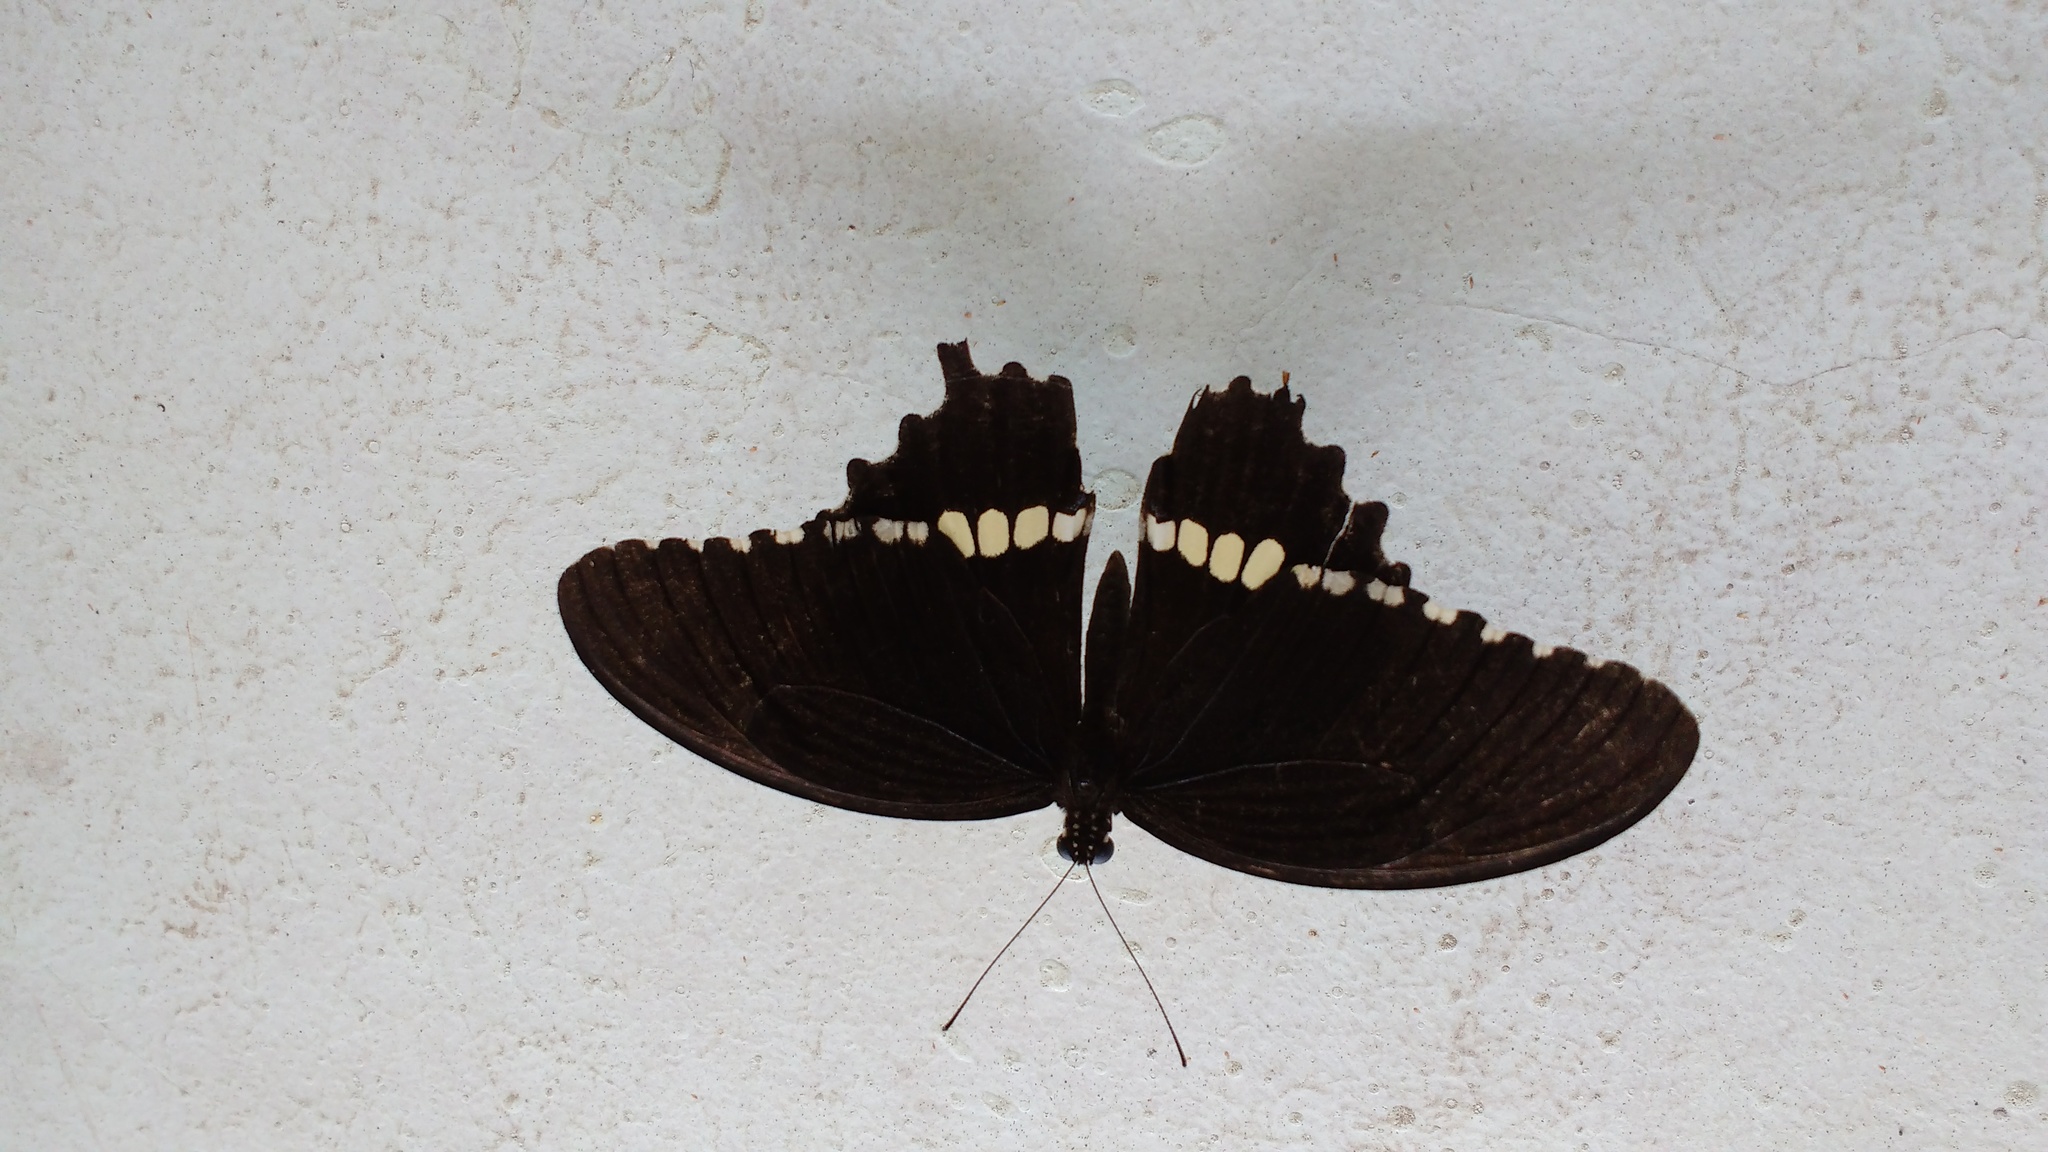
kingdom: Animalia
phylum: Arthropoda
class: Insecta
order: Lepidoptera
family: Papilionidae
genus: Papilio
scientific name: Papilio polytes
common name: Common mormon
